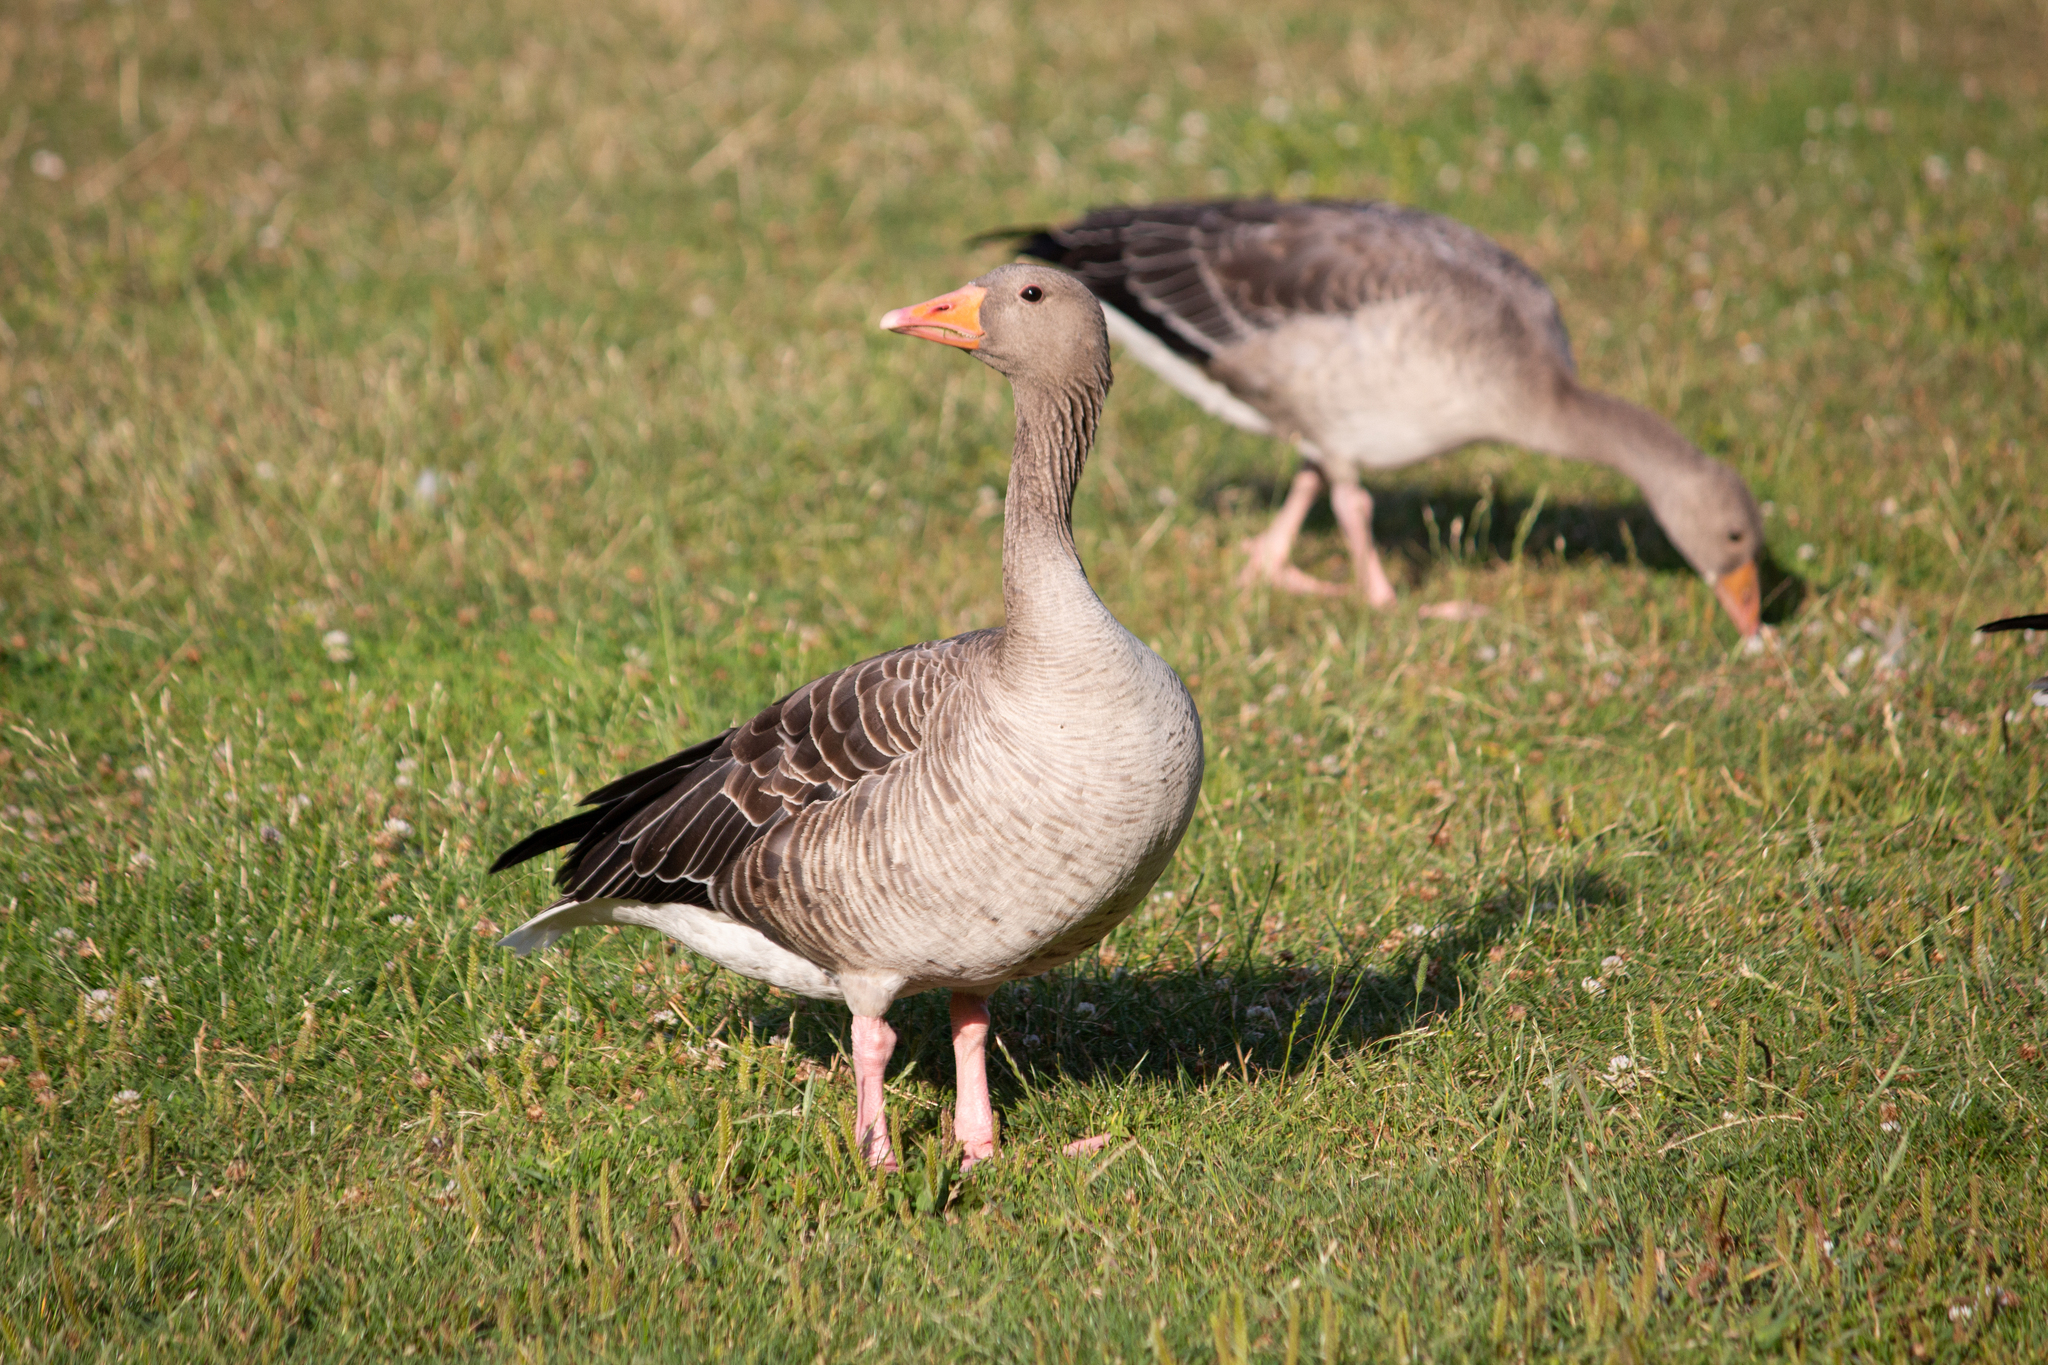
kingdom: Animalia
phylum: Chordata
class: Aves
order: Anseriformes
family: Anatidae
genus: Anser
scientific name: Anser anser
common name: Greylag goose
